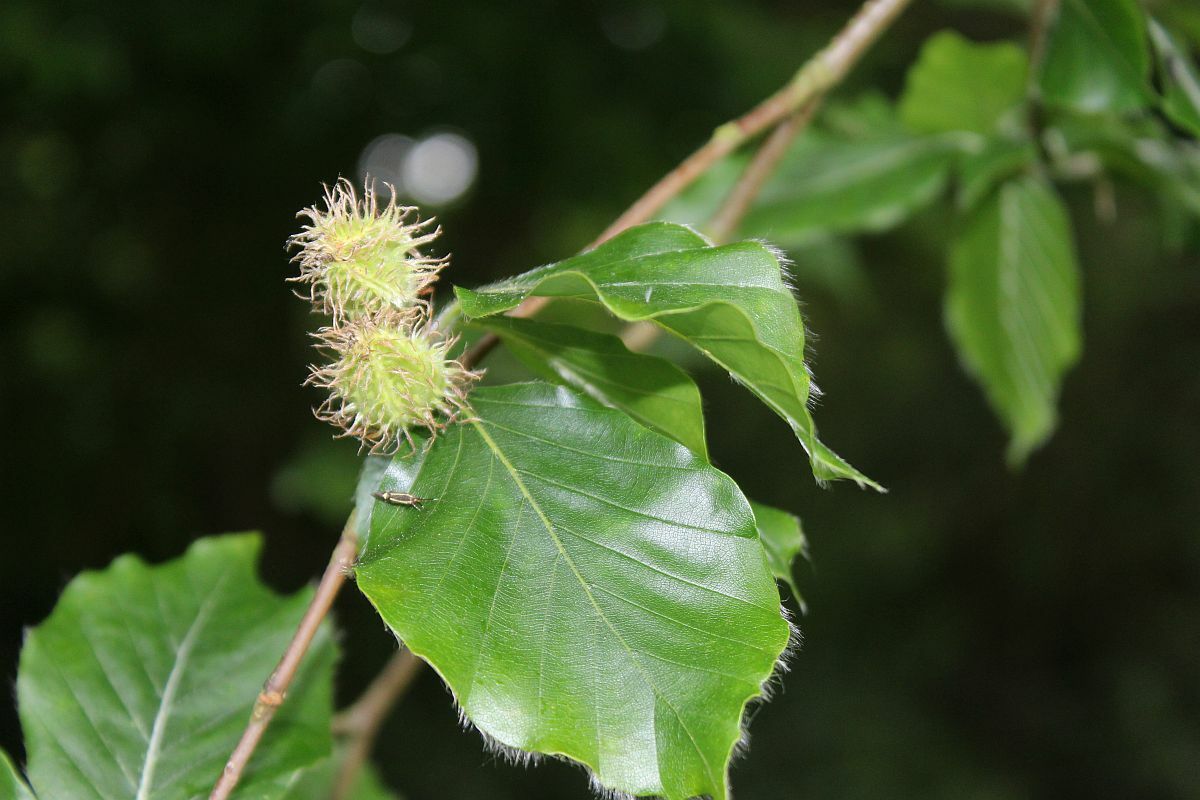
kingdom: Plantae
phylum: Tracheophyta
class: Magnoliopsida
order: Fagales
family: Fagaceae
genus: Fagus
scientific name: Fagus sylvatica
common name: Beech
